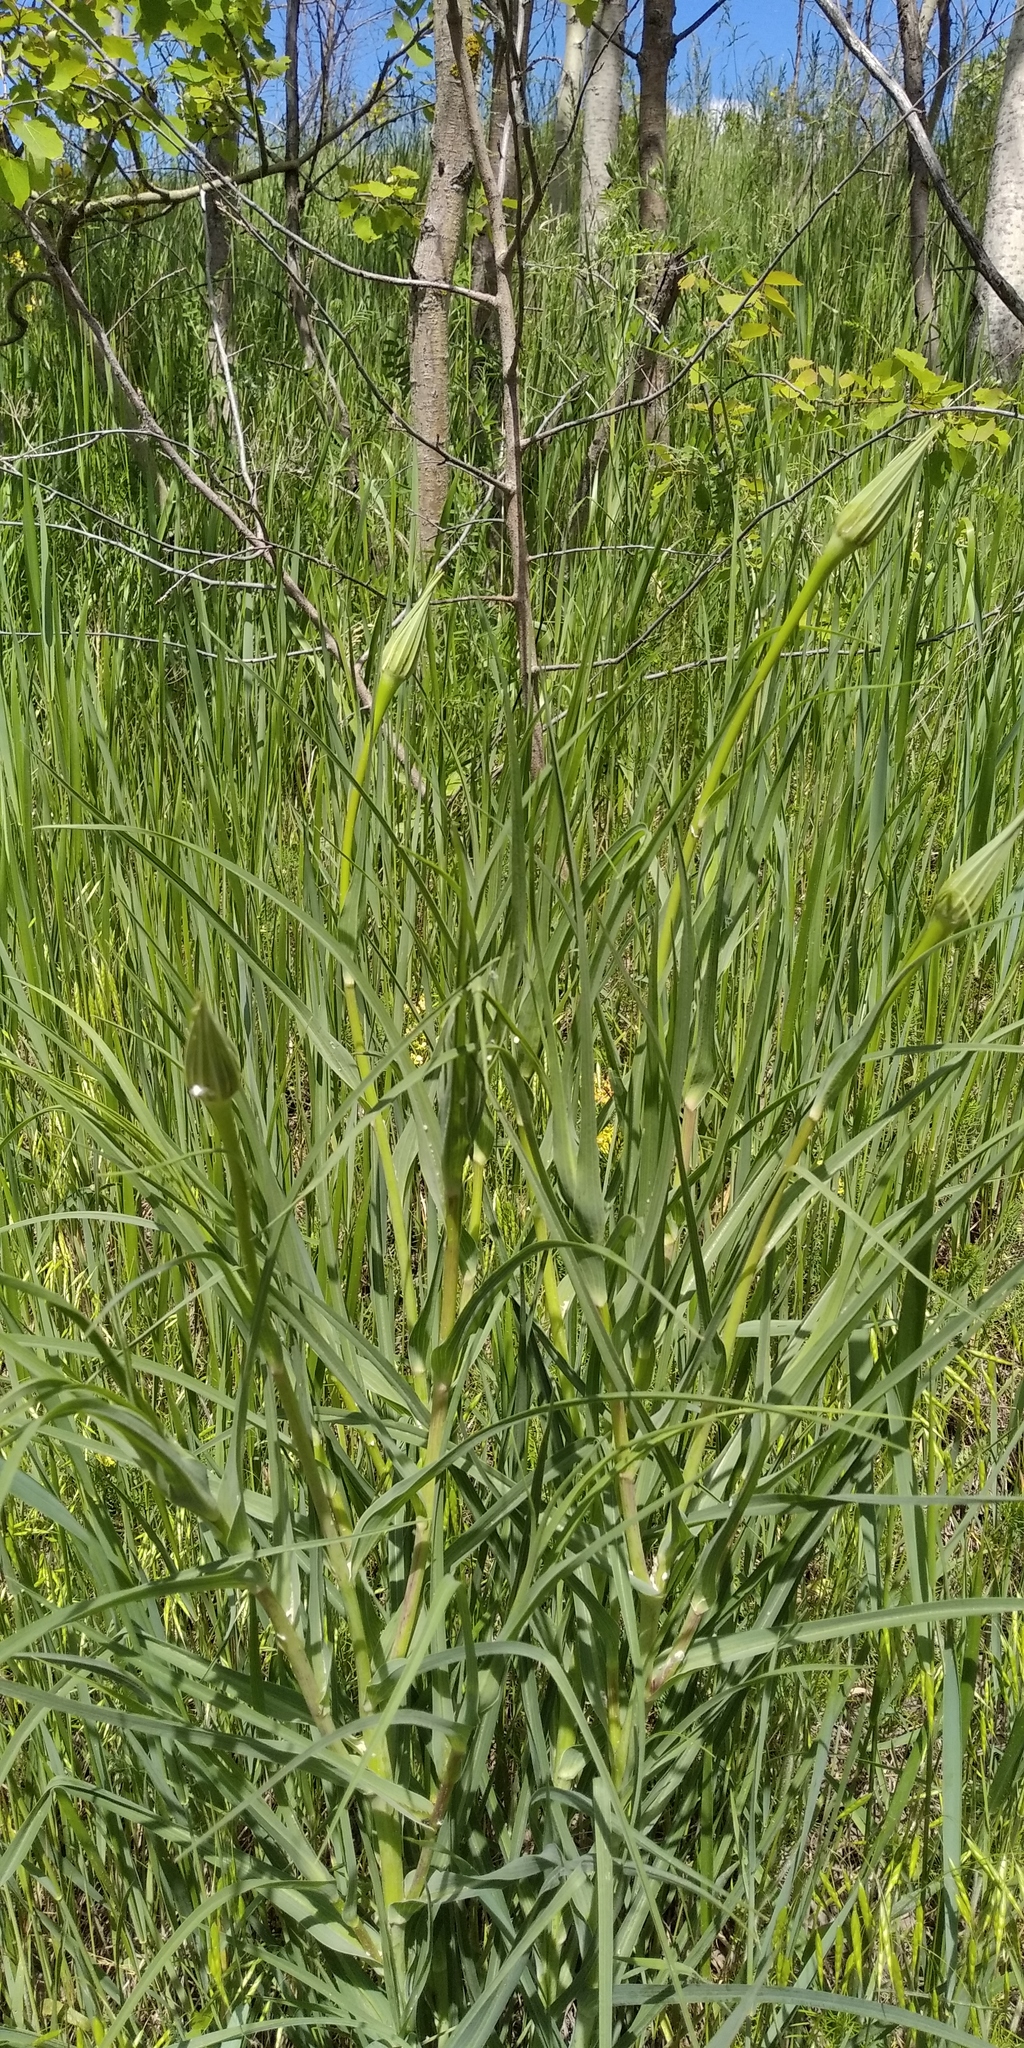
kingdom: Plantae
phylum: Tracheophyta
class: Magnoliopsida
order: Asterales
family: Asteraceae
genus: Tragopogon
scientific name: Tragopogon dubius
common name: Yellow salsify
